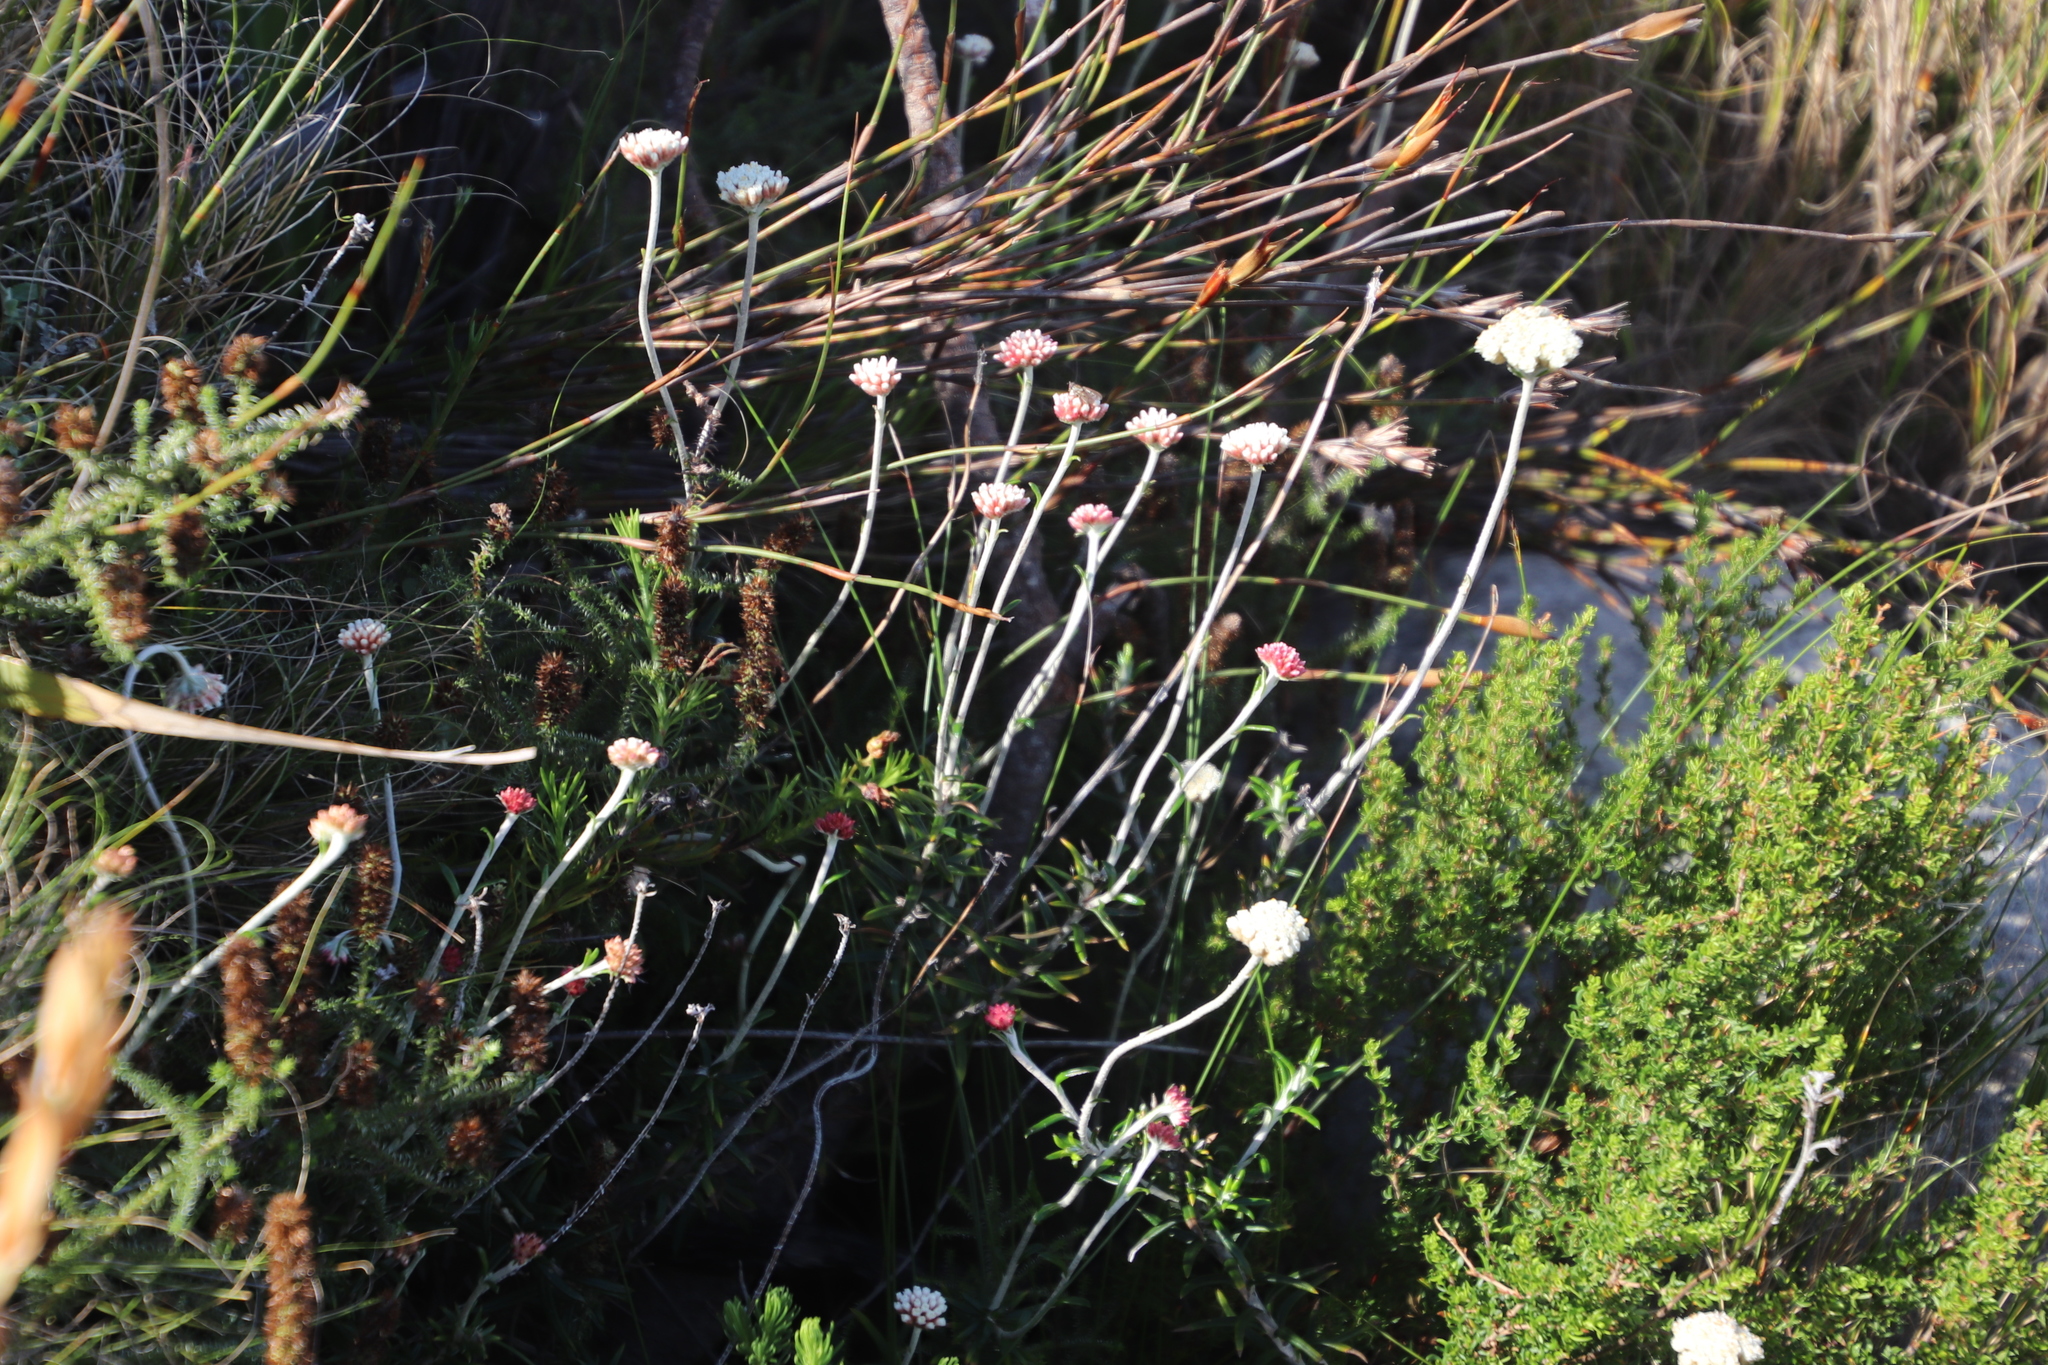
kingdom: Plantae
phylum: Tracheophyta
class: Magnoliopsida
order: Asterales
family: Asteraceae
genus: Anaxeton
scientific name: Anaxeton laeve
